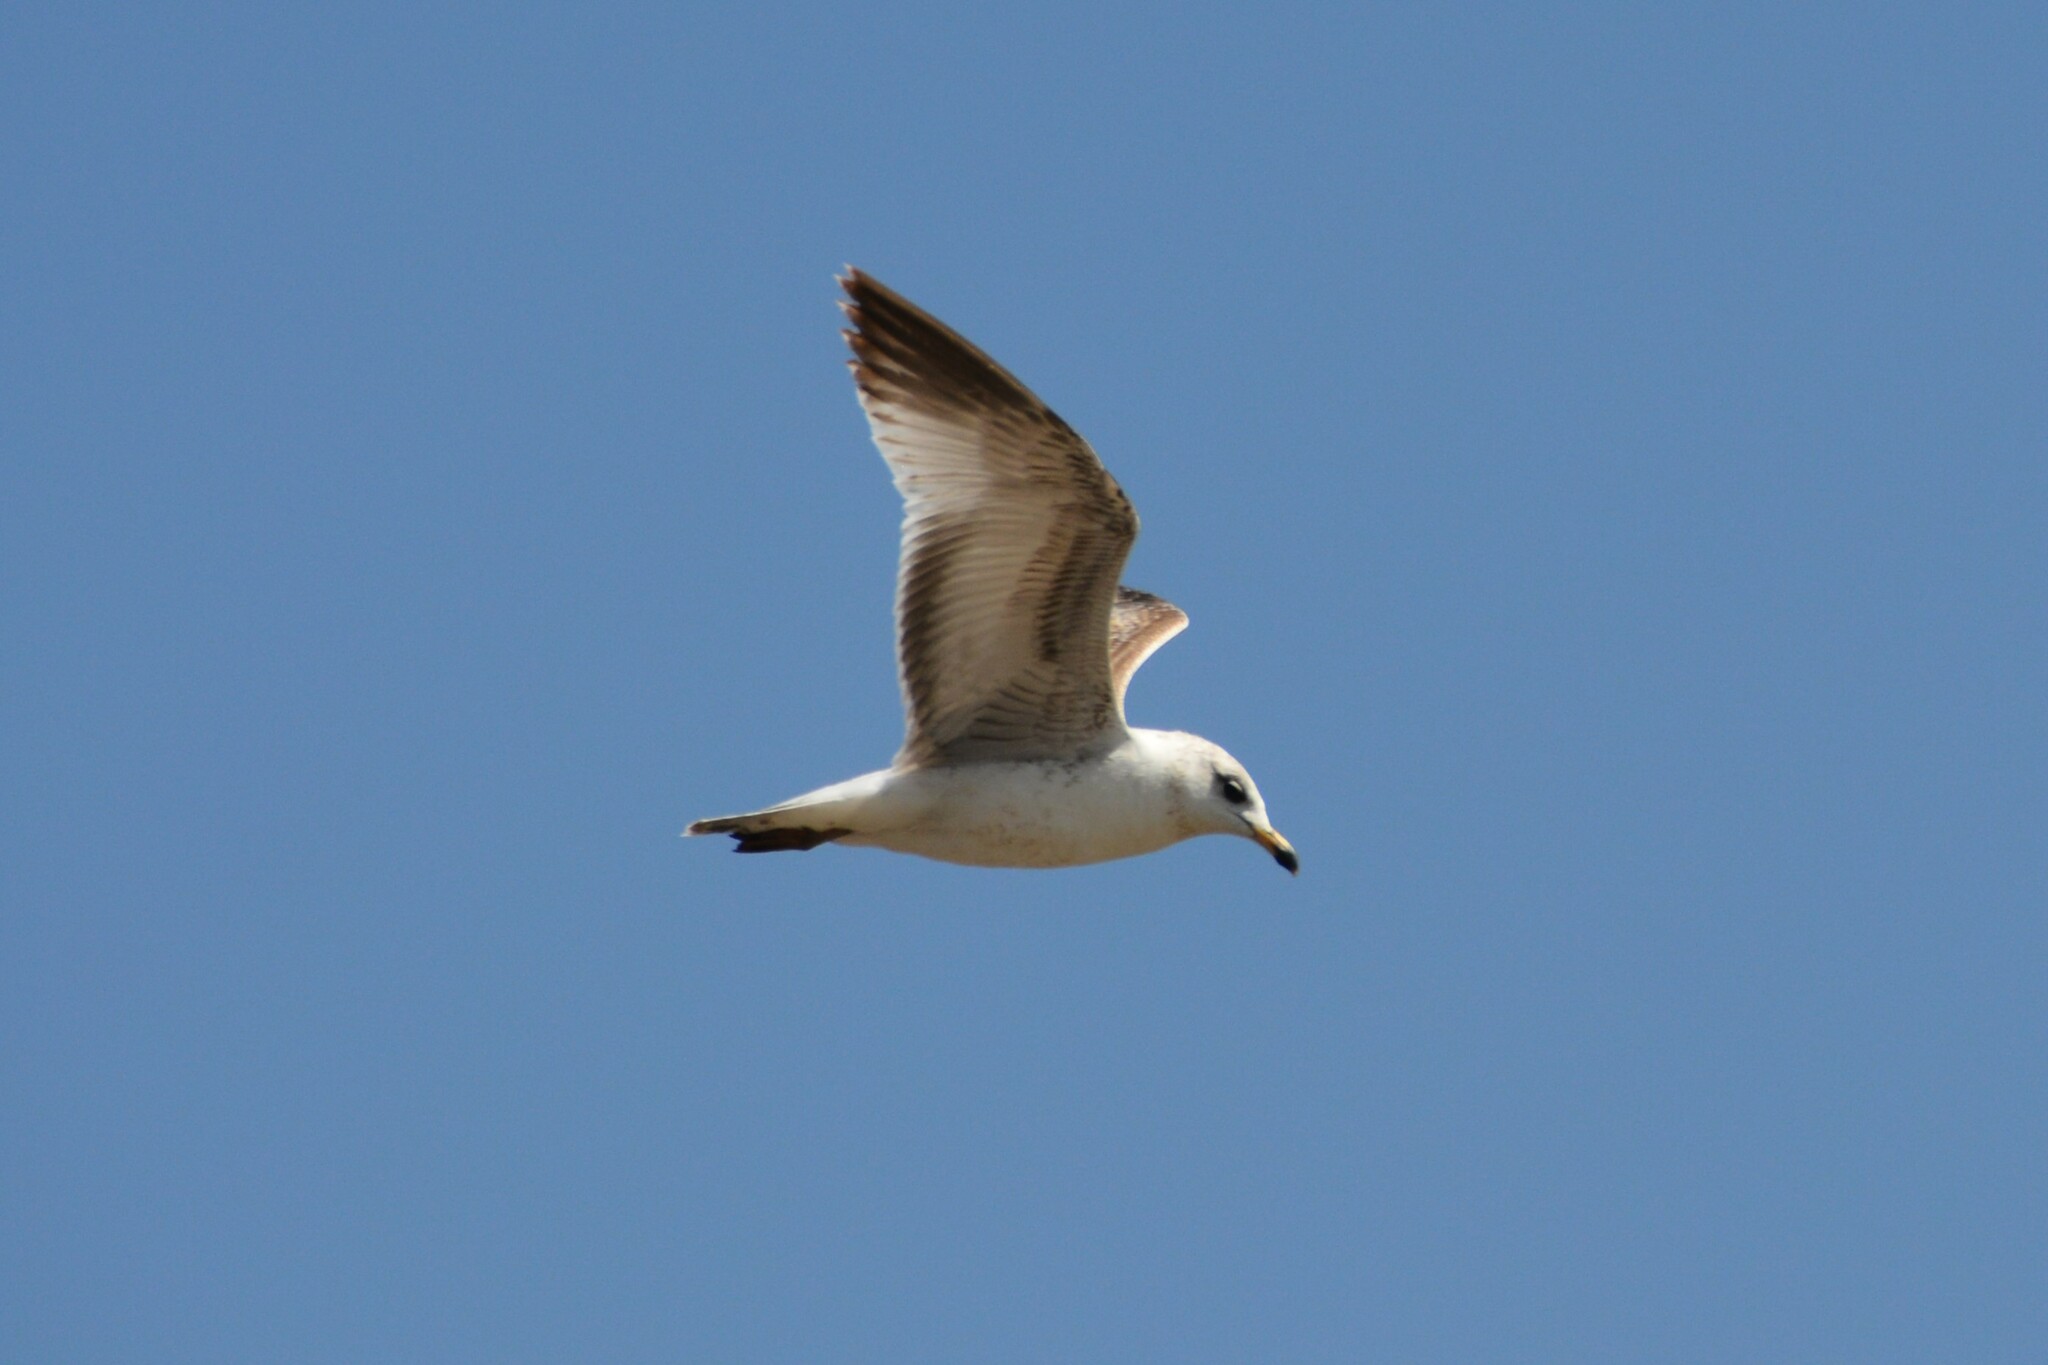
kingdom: Animalia
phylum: Chordata
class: Aves
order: Charadriiformes
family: Laridae
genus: Larus
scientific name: Larus delawarensis
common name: Ring-billed gull
